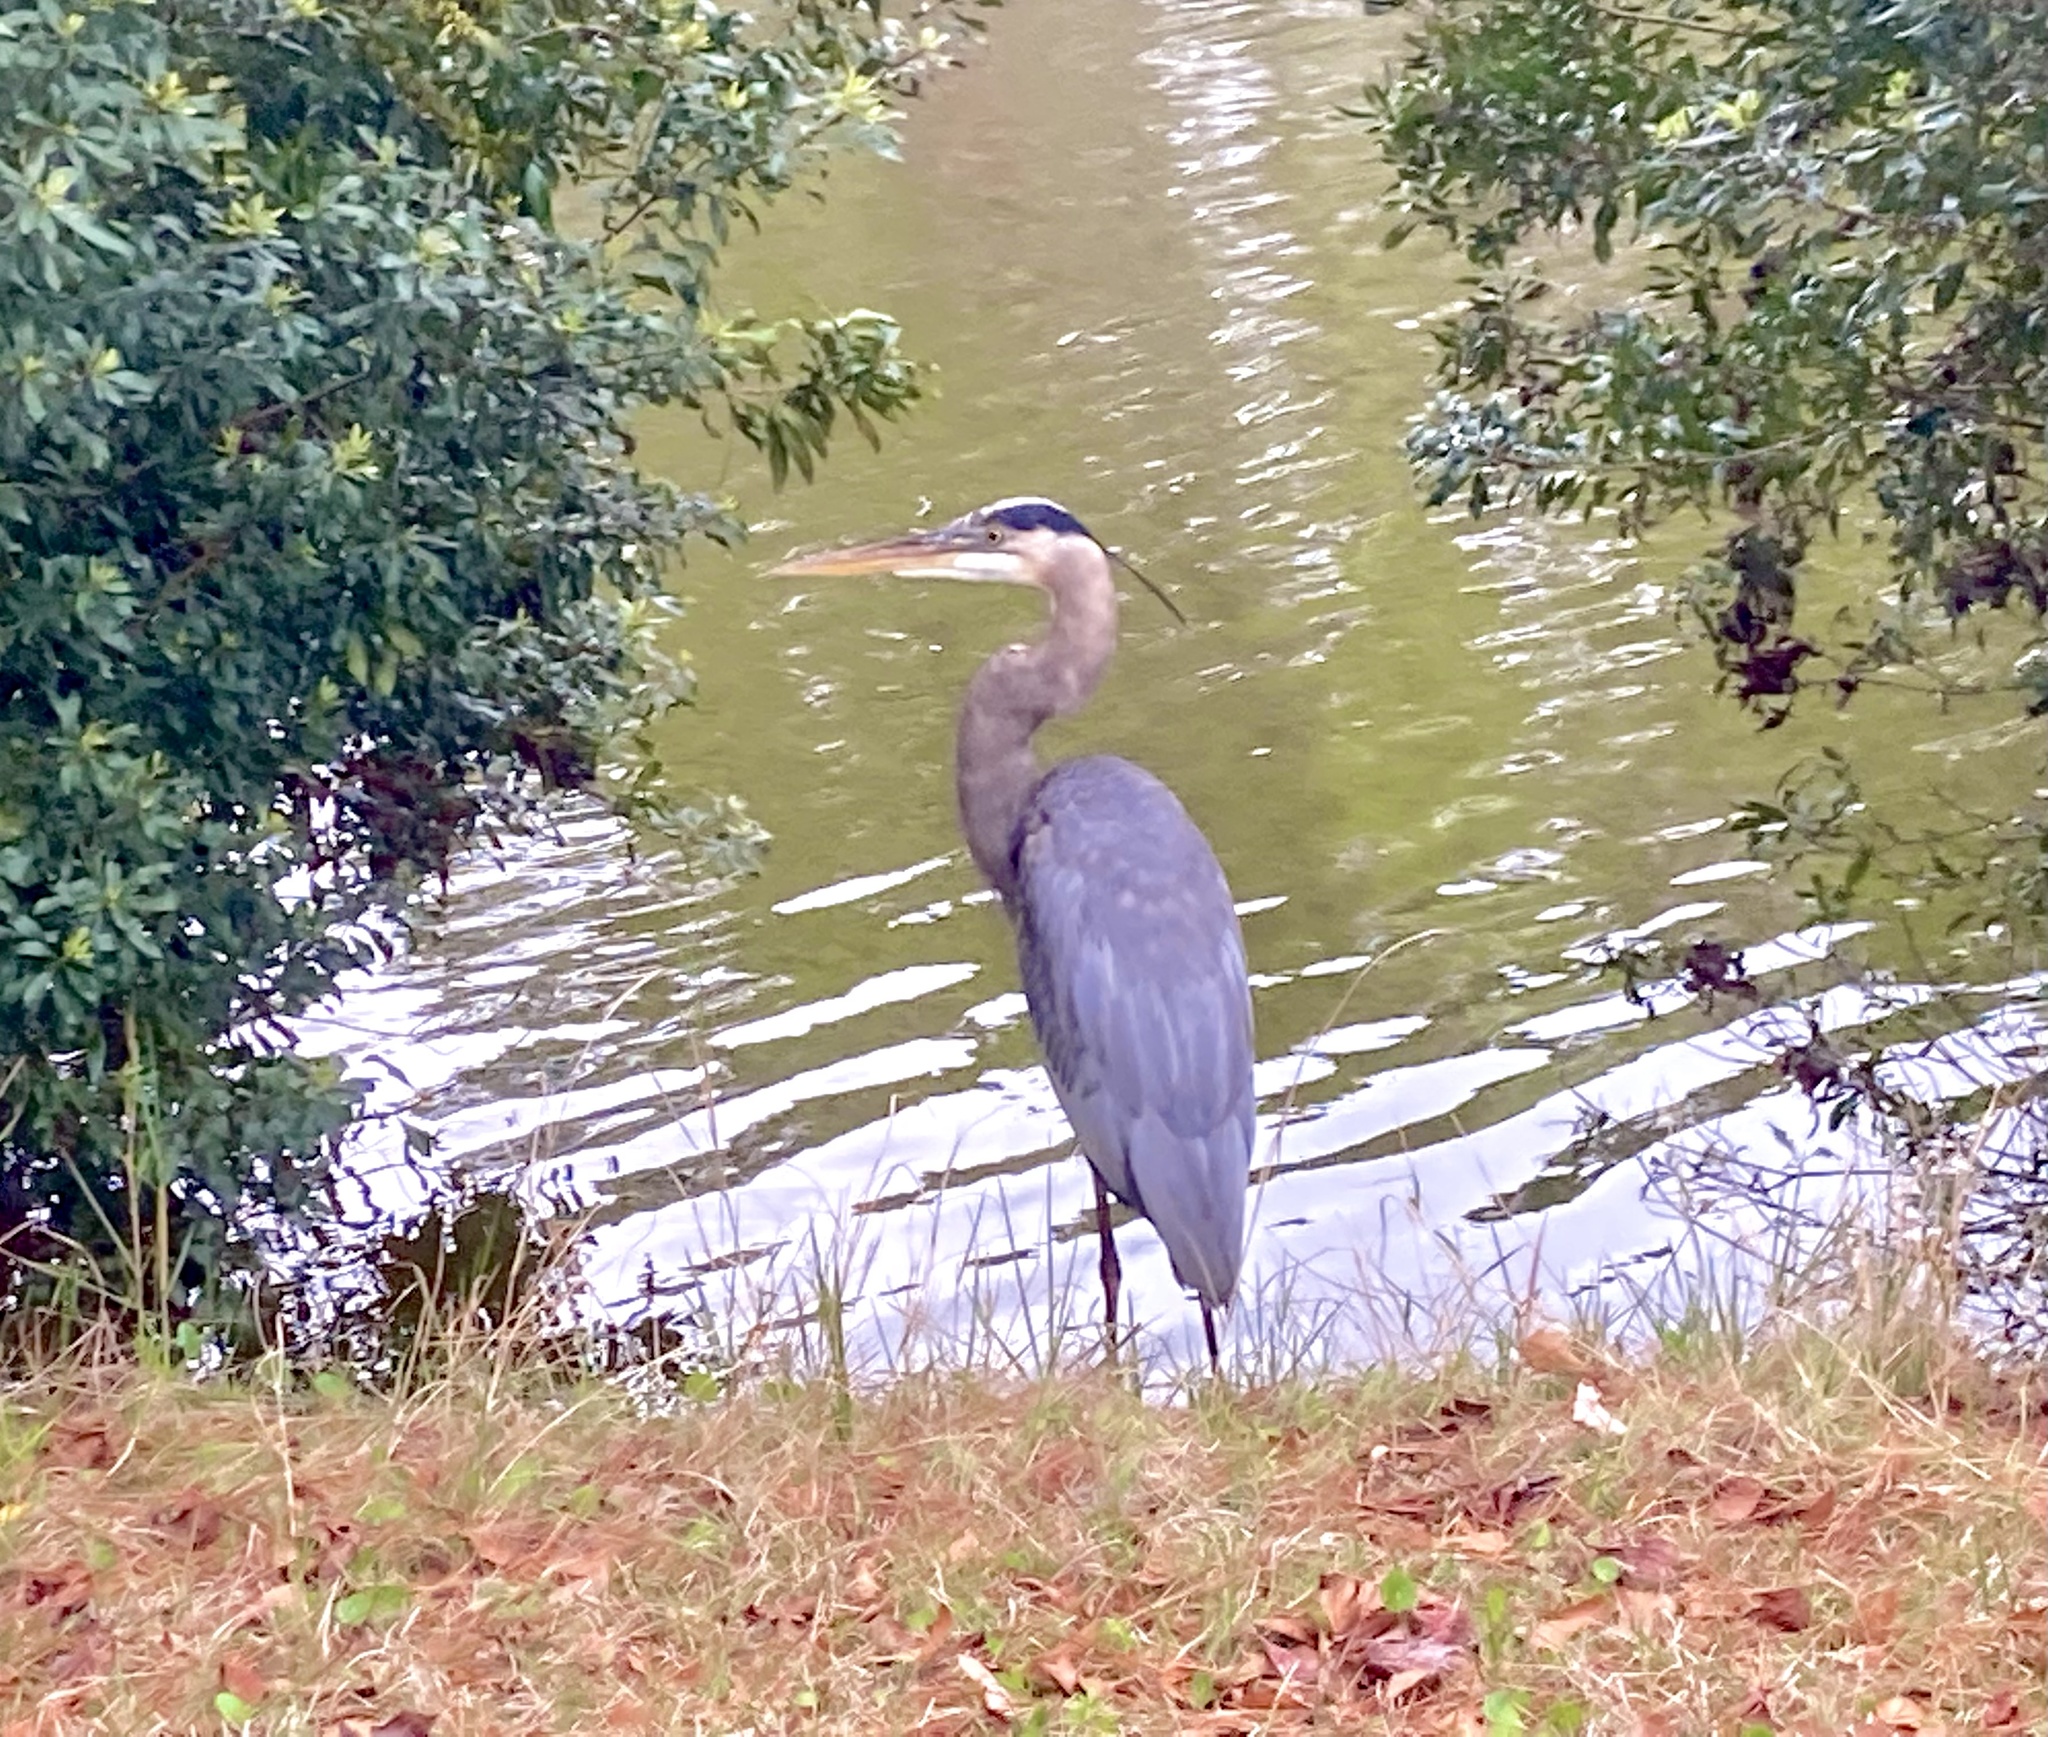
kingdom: Animalia
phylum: Chordata
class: Aves
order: Pelecaniformes
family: Ardeidae
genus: Ardea
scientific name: Ardea herodias
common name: Great blue heron
